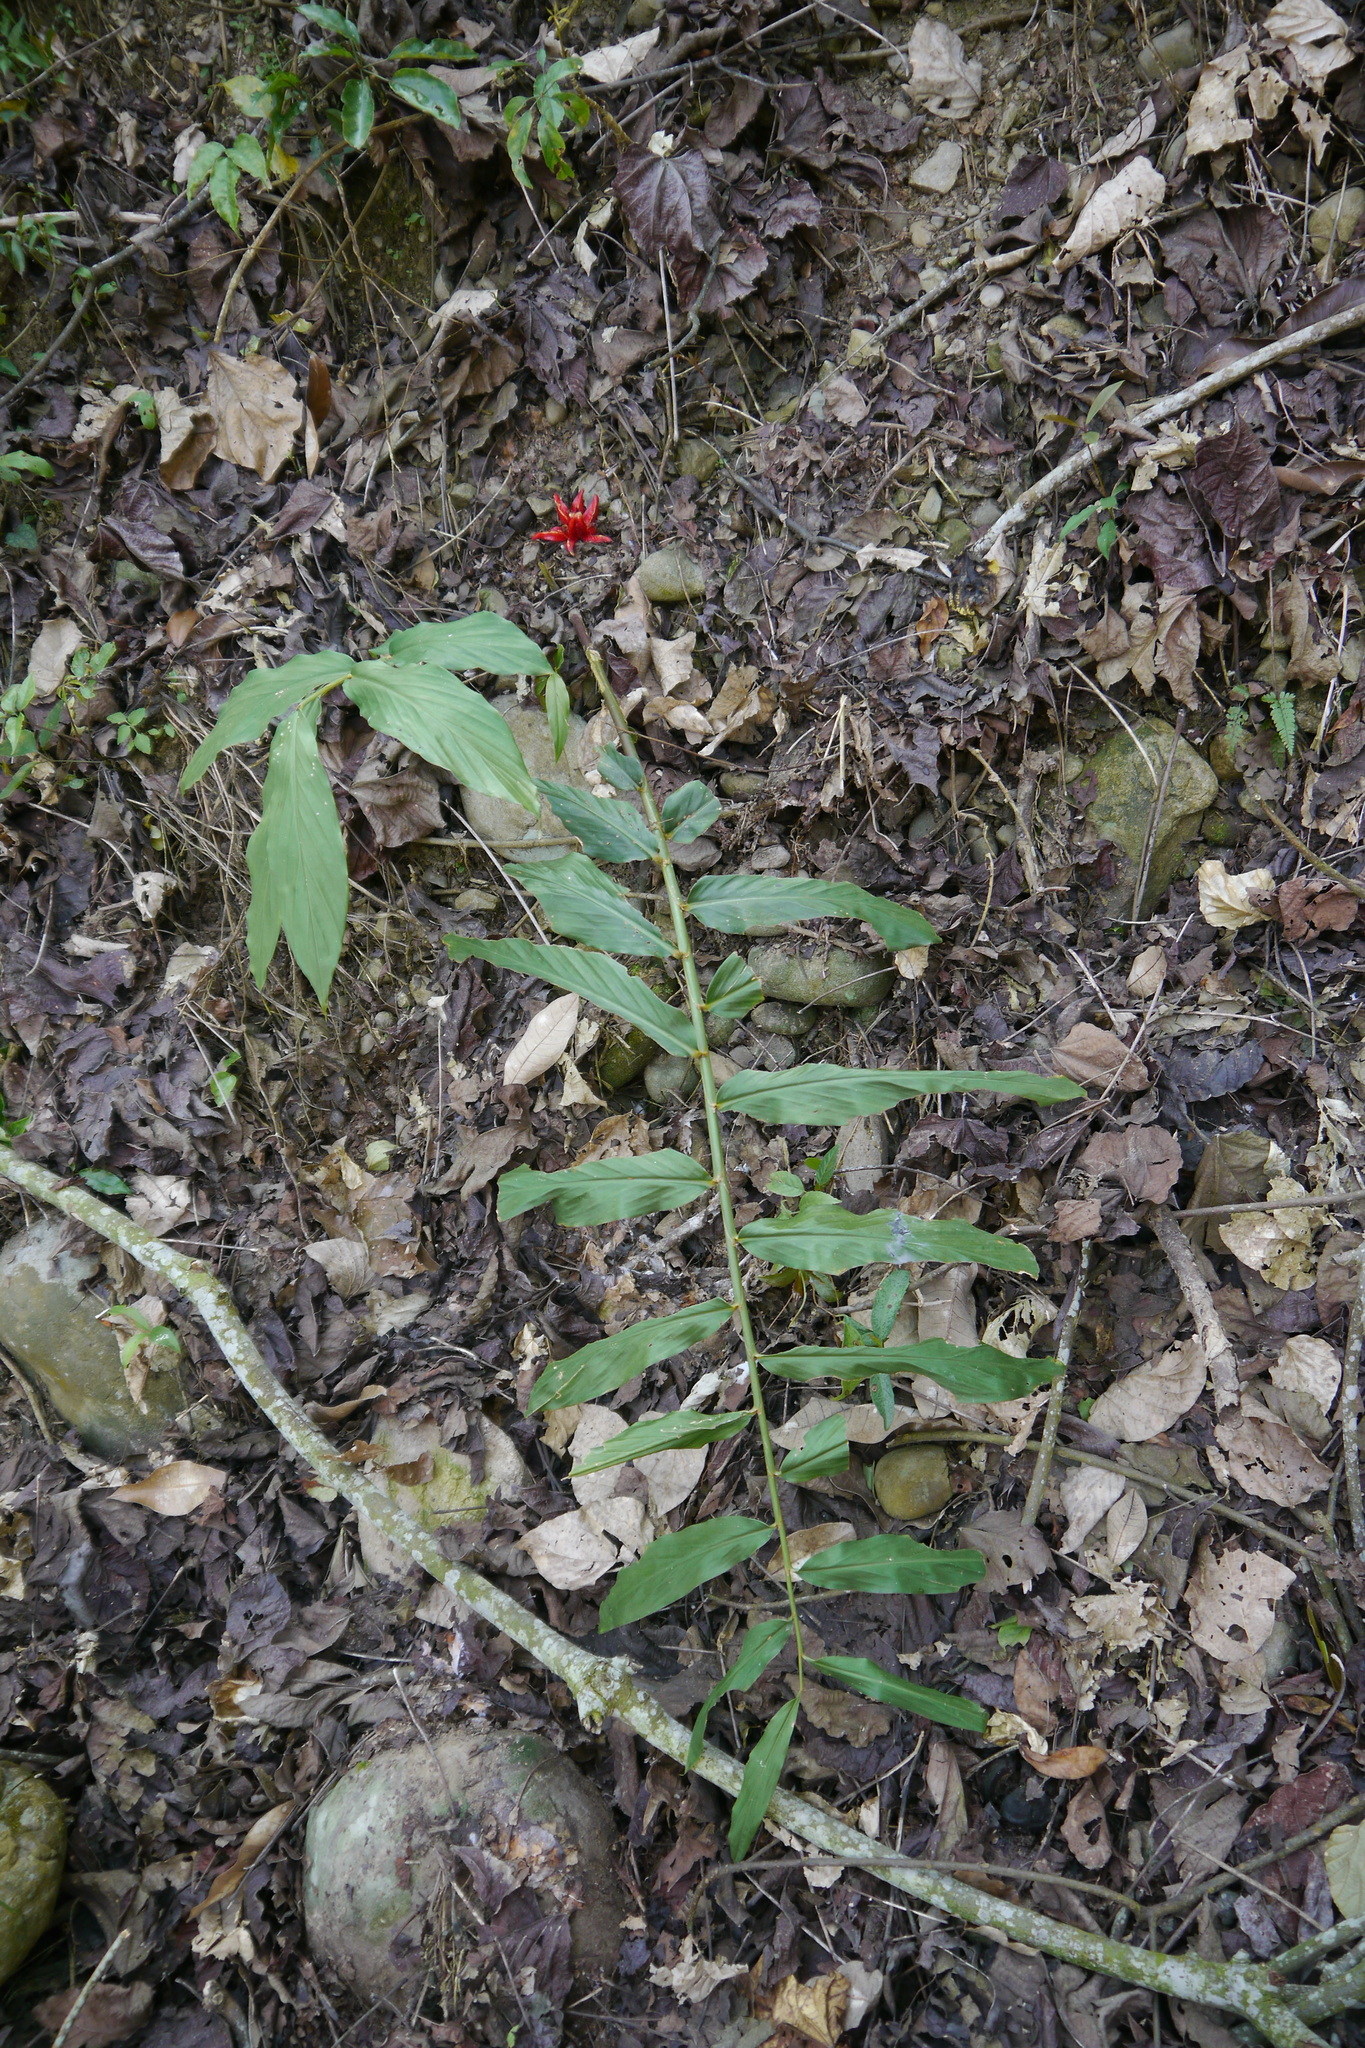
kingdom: Plantae
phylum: Tracheophyta
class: Liliopsida
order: Zingiberales
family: Zingiberaceae
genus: Zingiber
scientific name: Zingiber kawagoii
